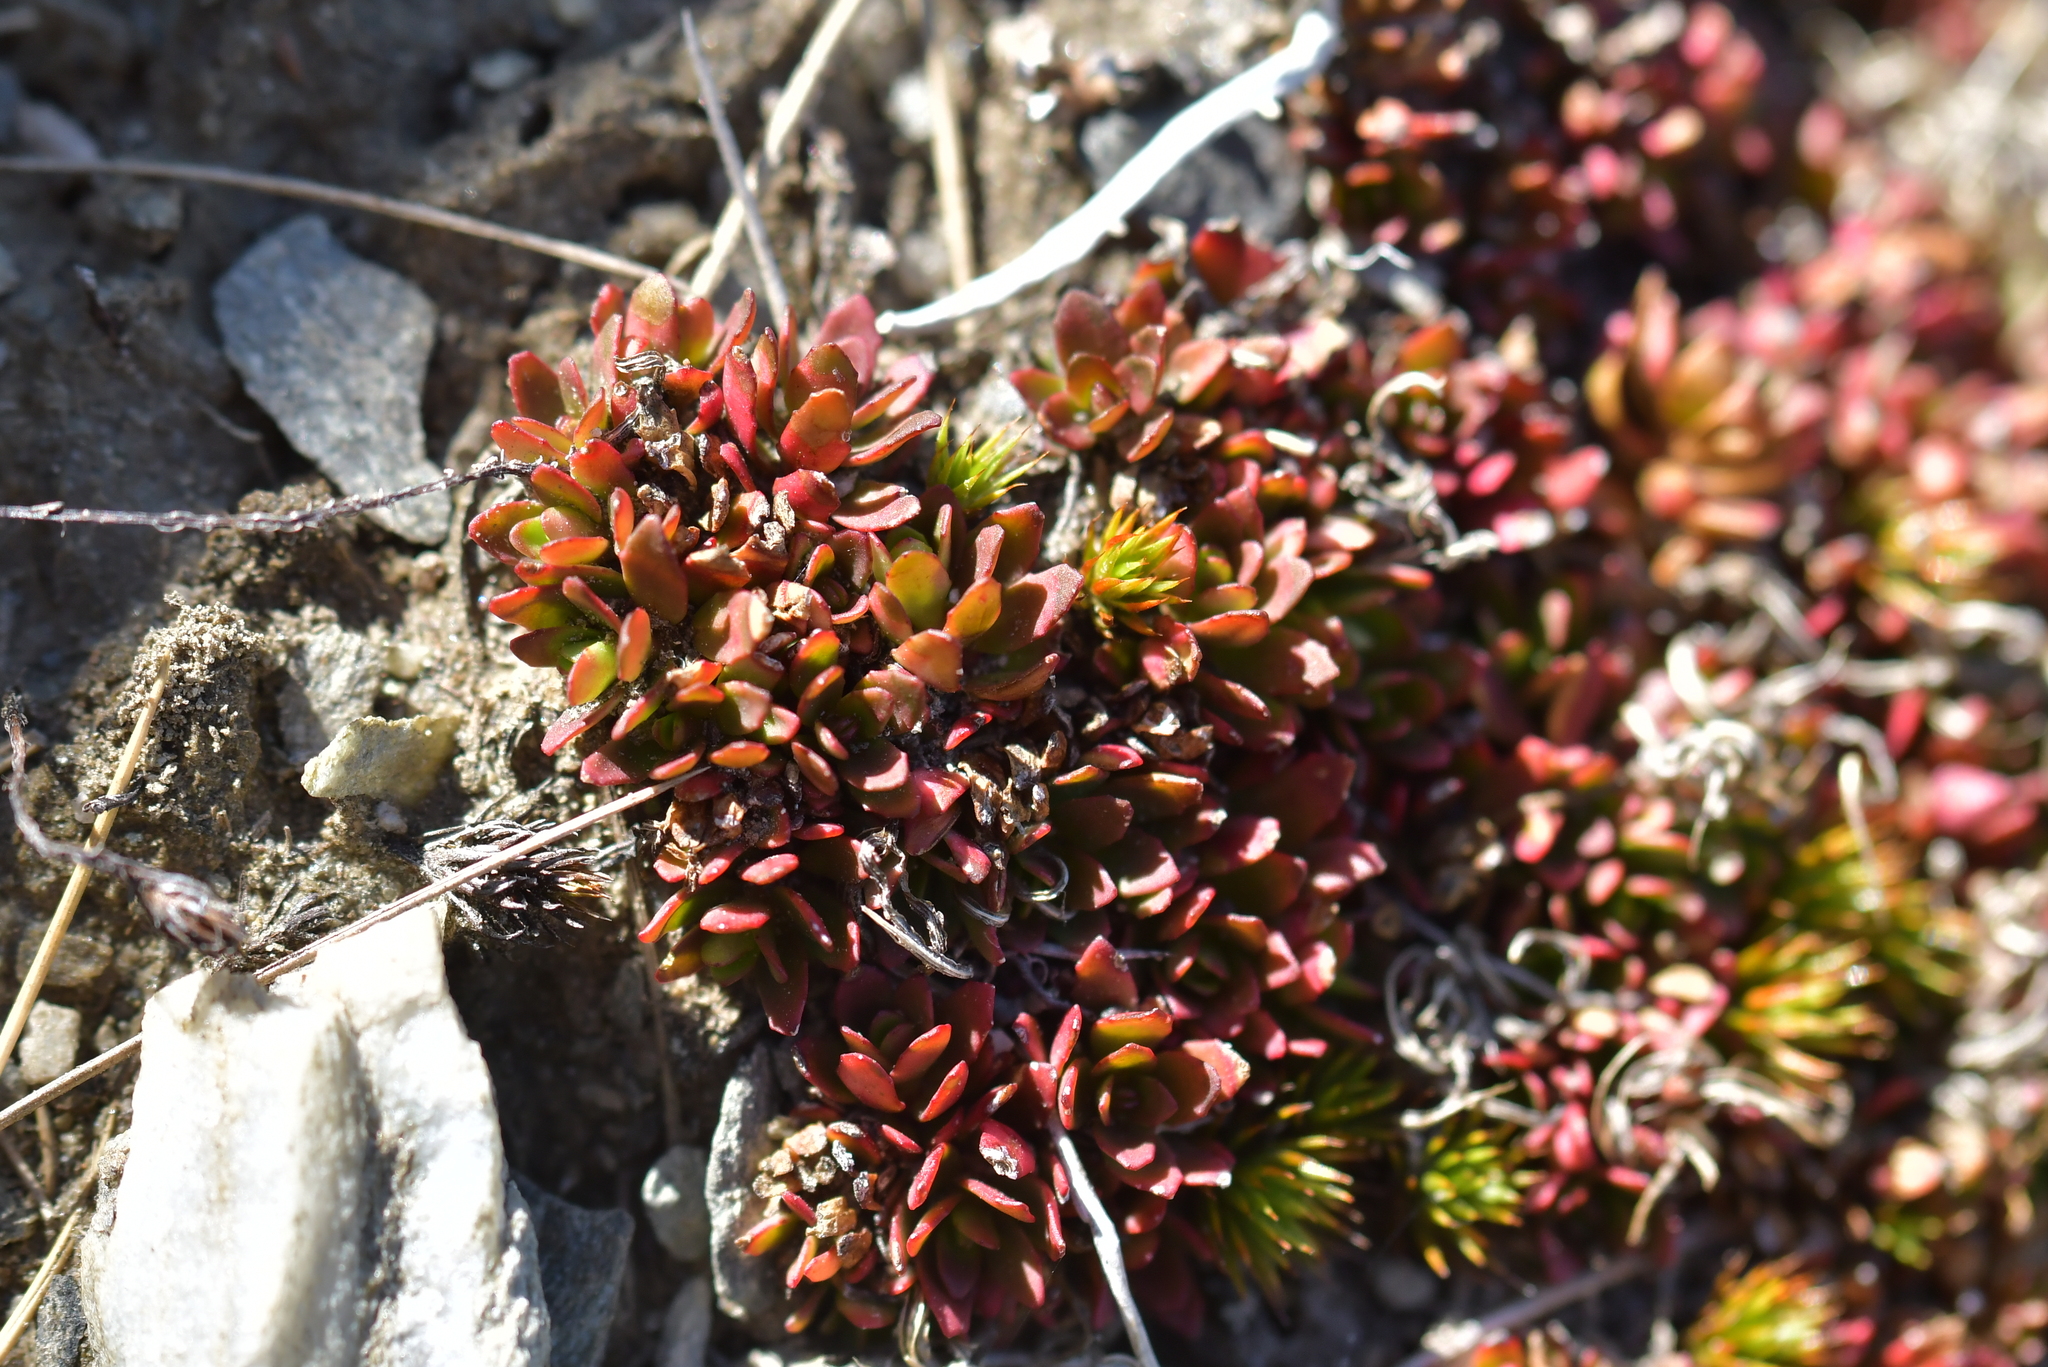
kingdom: Plantae
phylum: Tracheophyta
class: Magnoliopsida
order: Myrtales
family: Onagraceae
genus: Epilobium
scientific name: Epilobium tasmanicum
